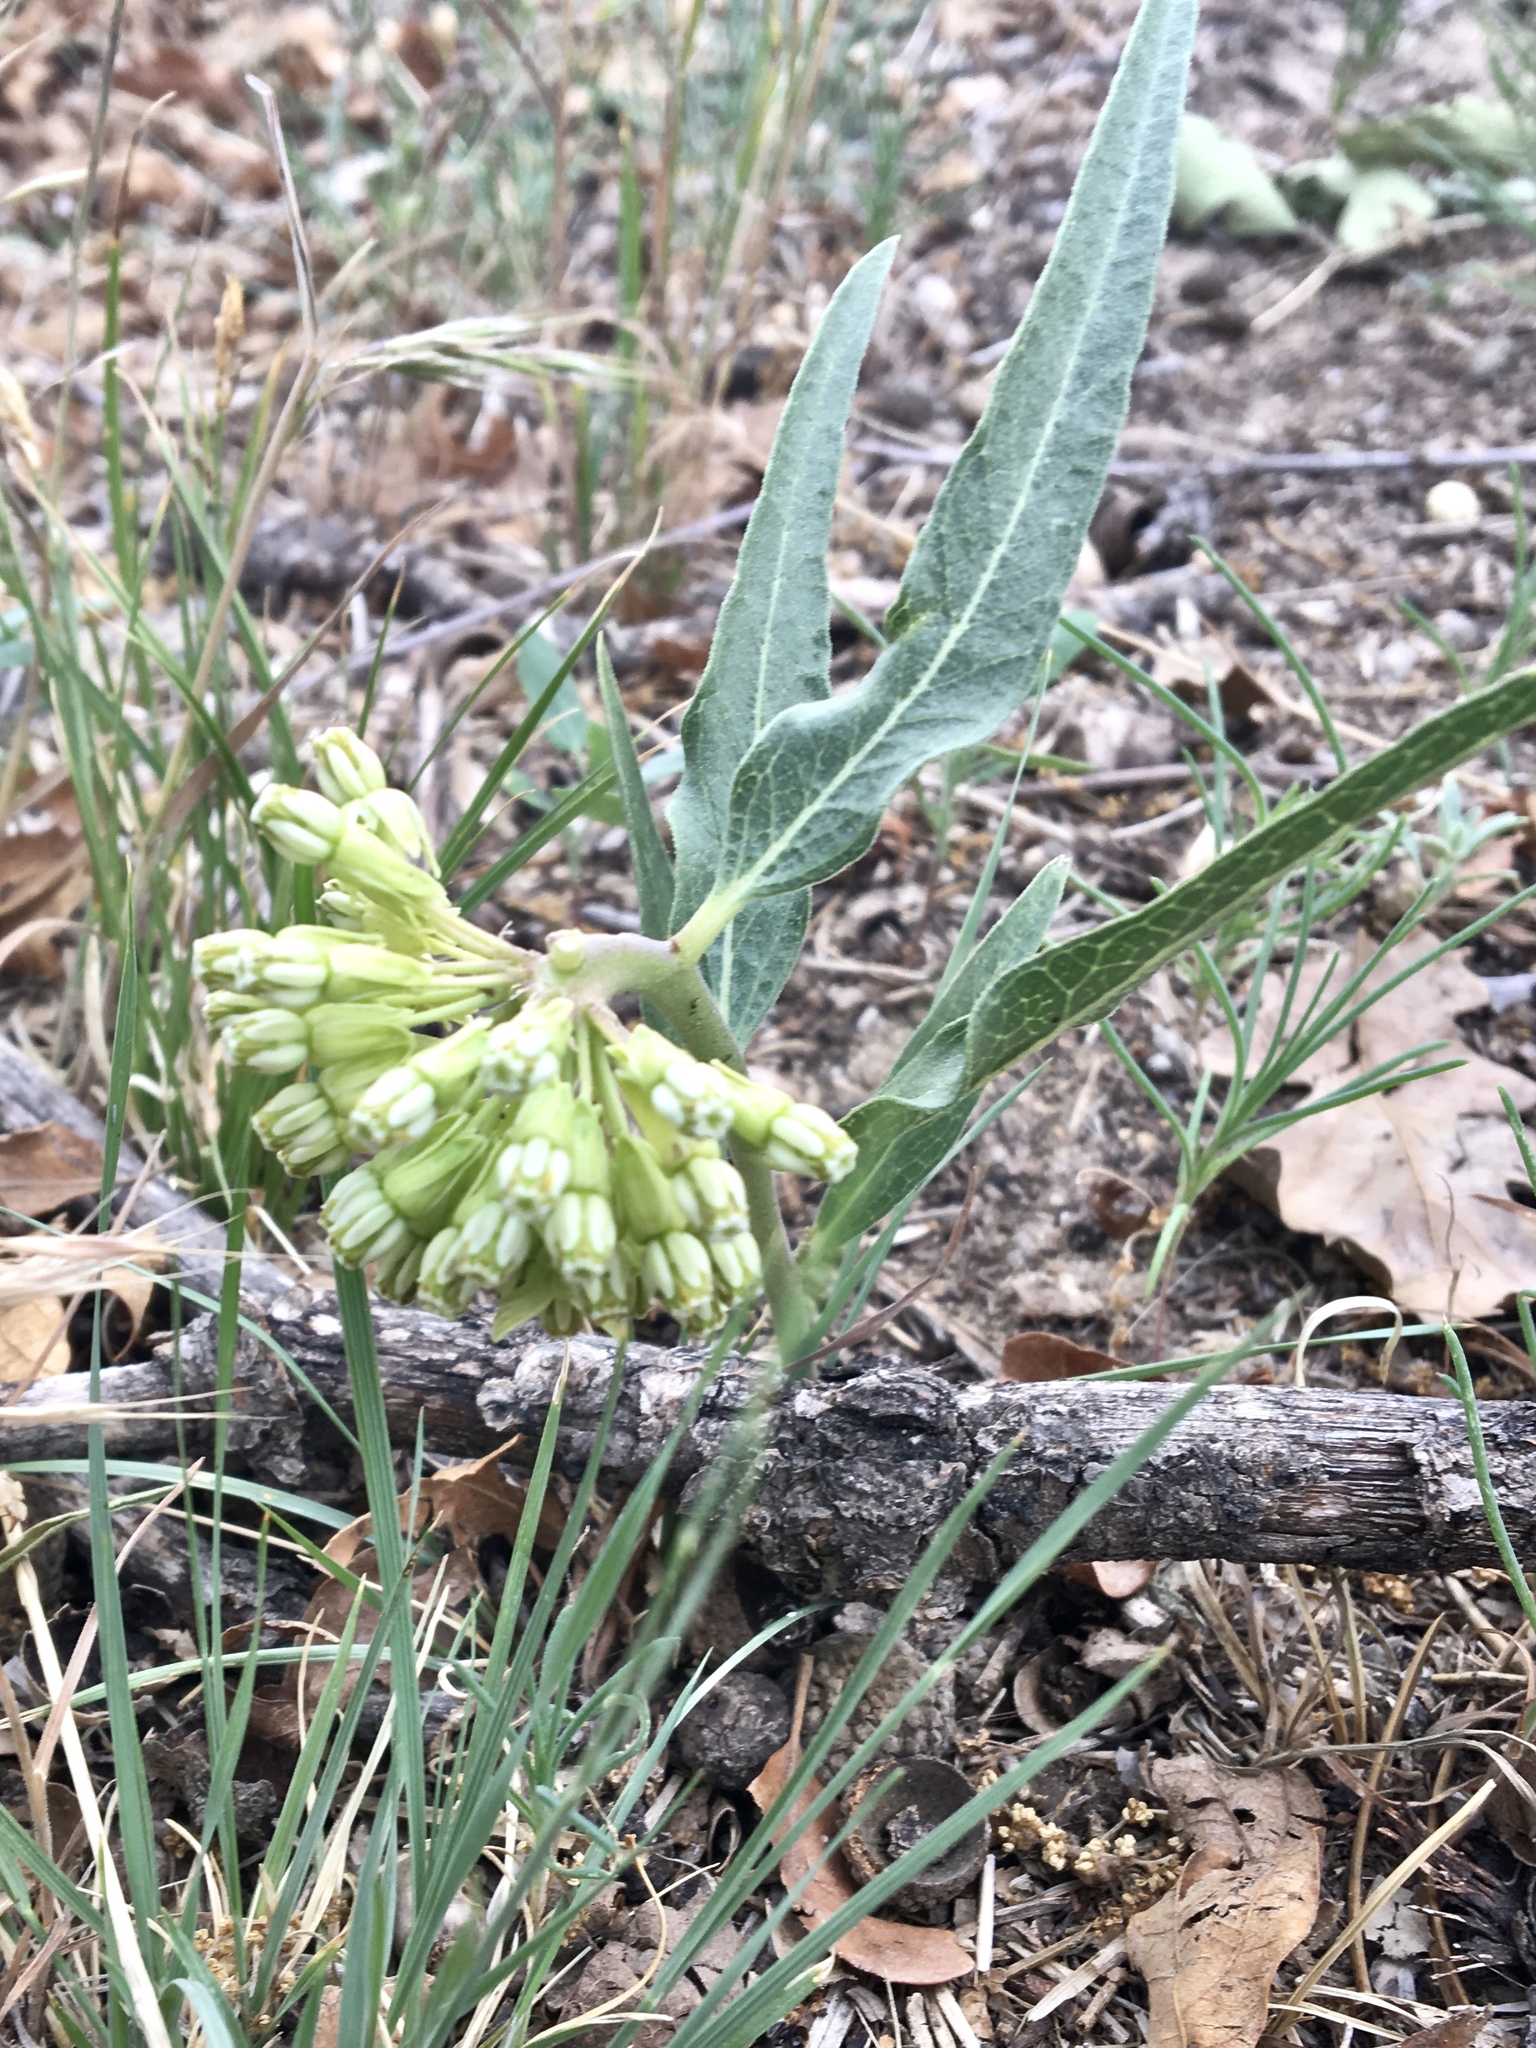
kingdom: Plantae
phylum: Tracheophyta
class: Magnoliopsida
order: Gentianales
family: Apocynaceae
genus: Asclepias
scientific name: Asclepias viridiflora
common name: Green comet milkweed
